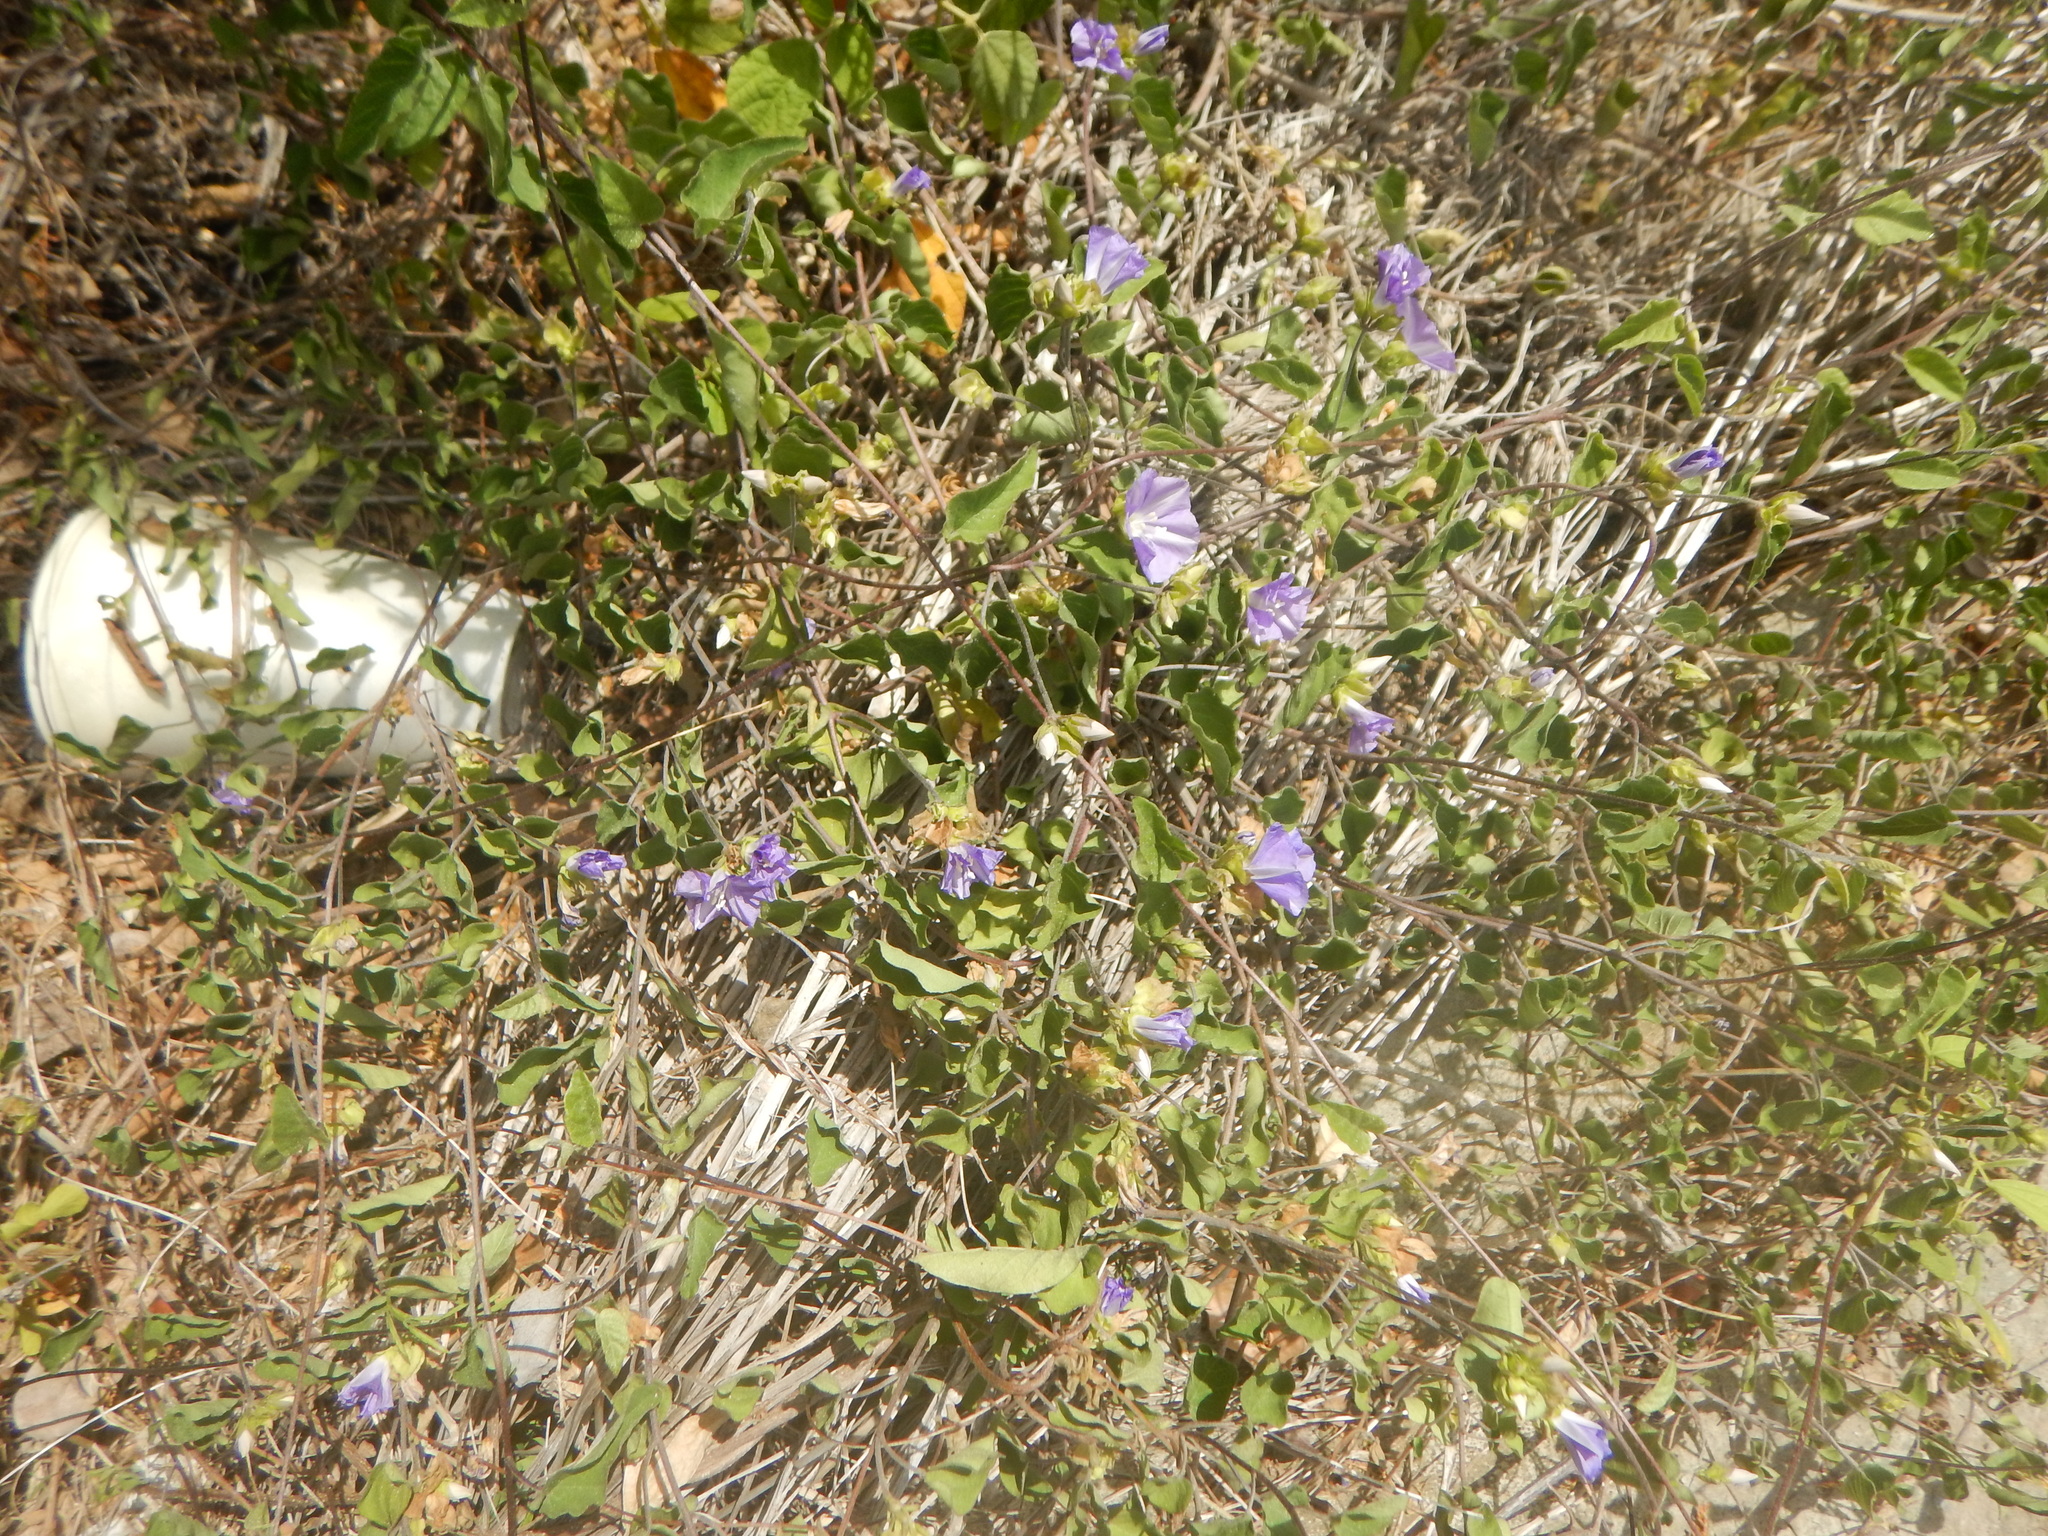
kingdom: Plantae
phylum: Tracheophyta
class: Magnoliopsida
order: Solanales
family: Convolvulaceae
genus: Jacquemontia
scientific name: Jacquemontia cumanensis
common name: Thicket clustervine
